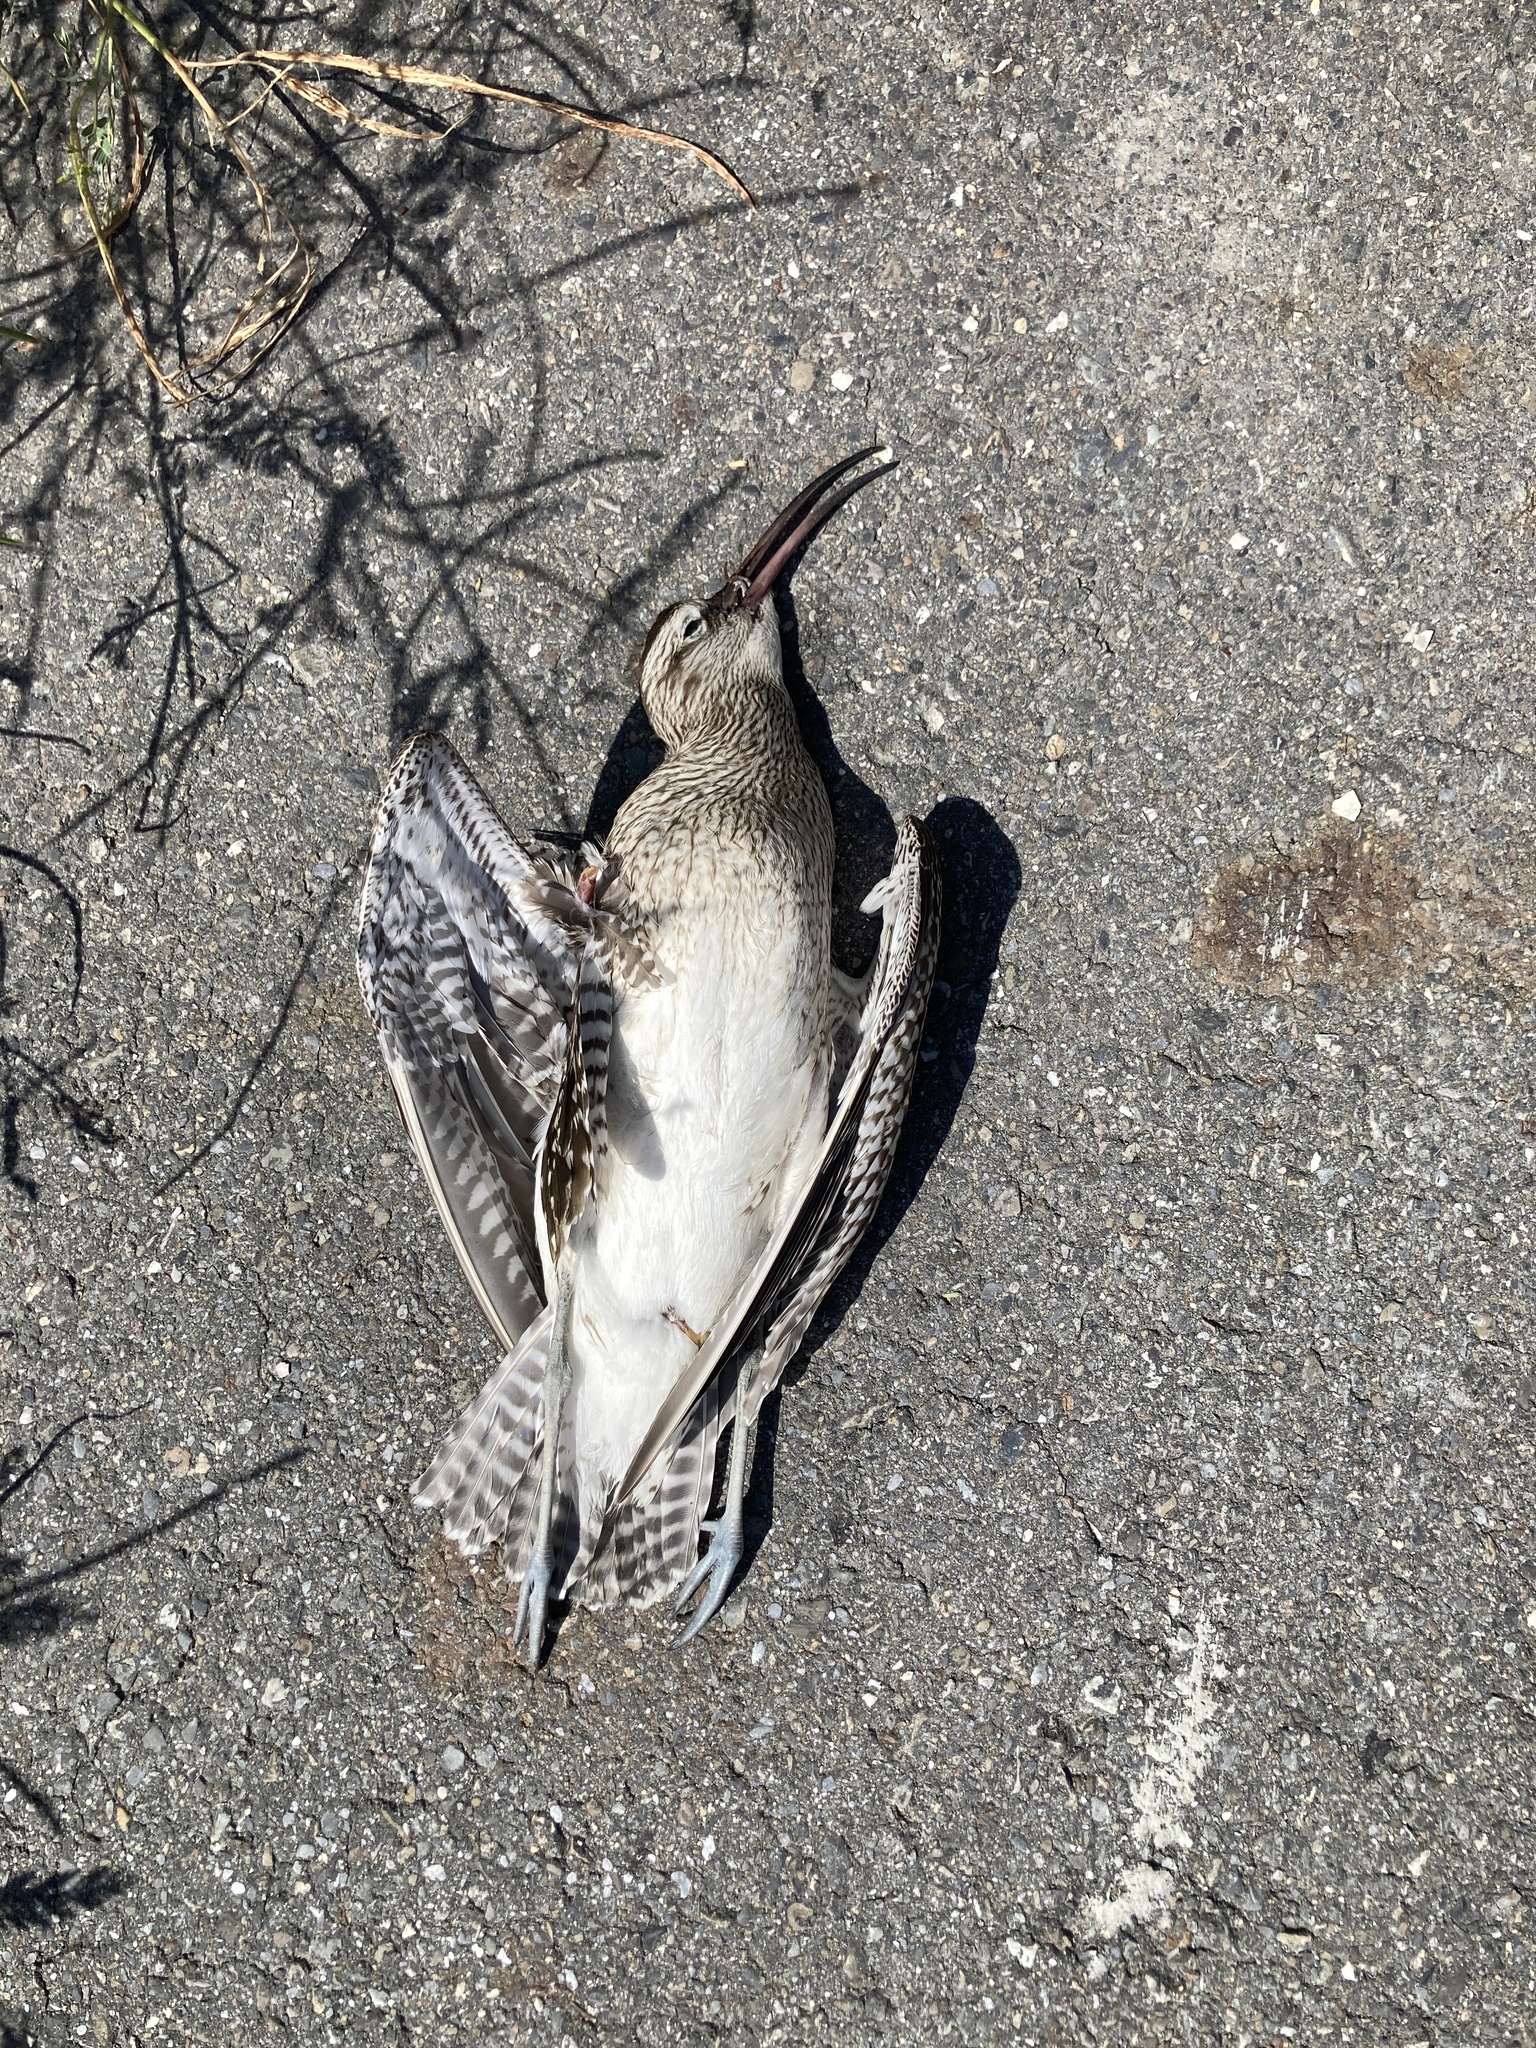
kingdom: Animalia
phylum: Chordata
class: Aves
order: Charadriiformes
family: Scolopacidae
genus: Numenius
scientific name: Numenius phaeopus
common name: Whimbrel
